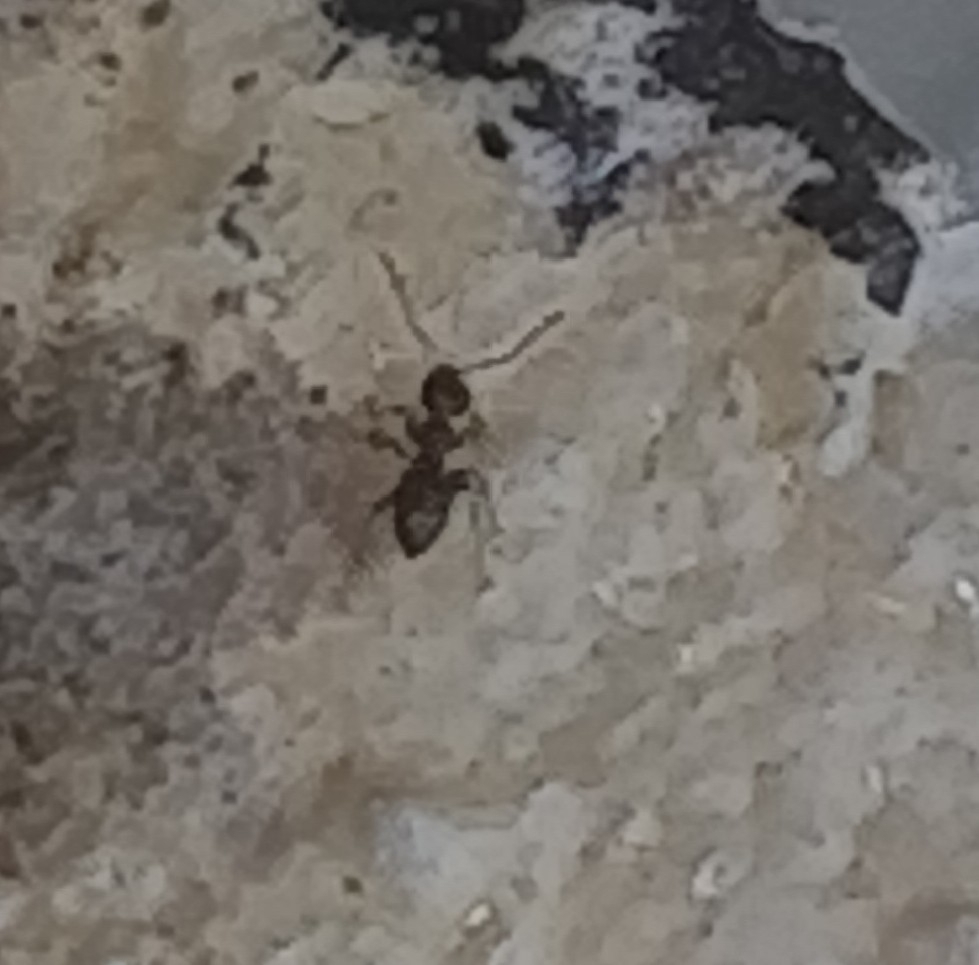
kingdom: Animalia
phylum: Arthropoda
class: Insecta
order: Hymenoptera
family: Formicidae
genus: Brachymyrmex
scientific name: Brachymyrmex patagonicus
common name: Dark rover ant
